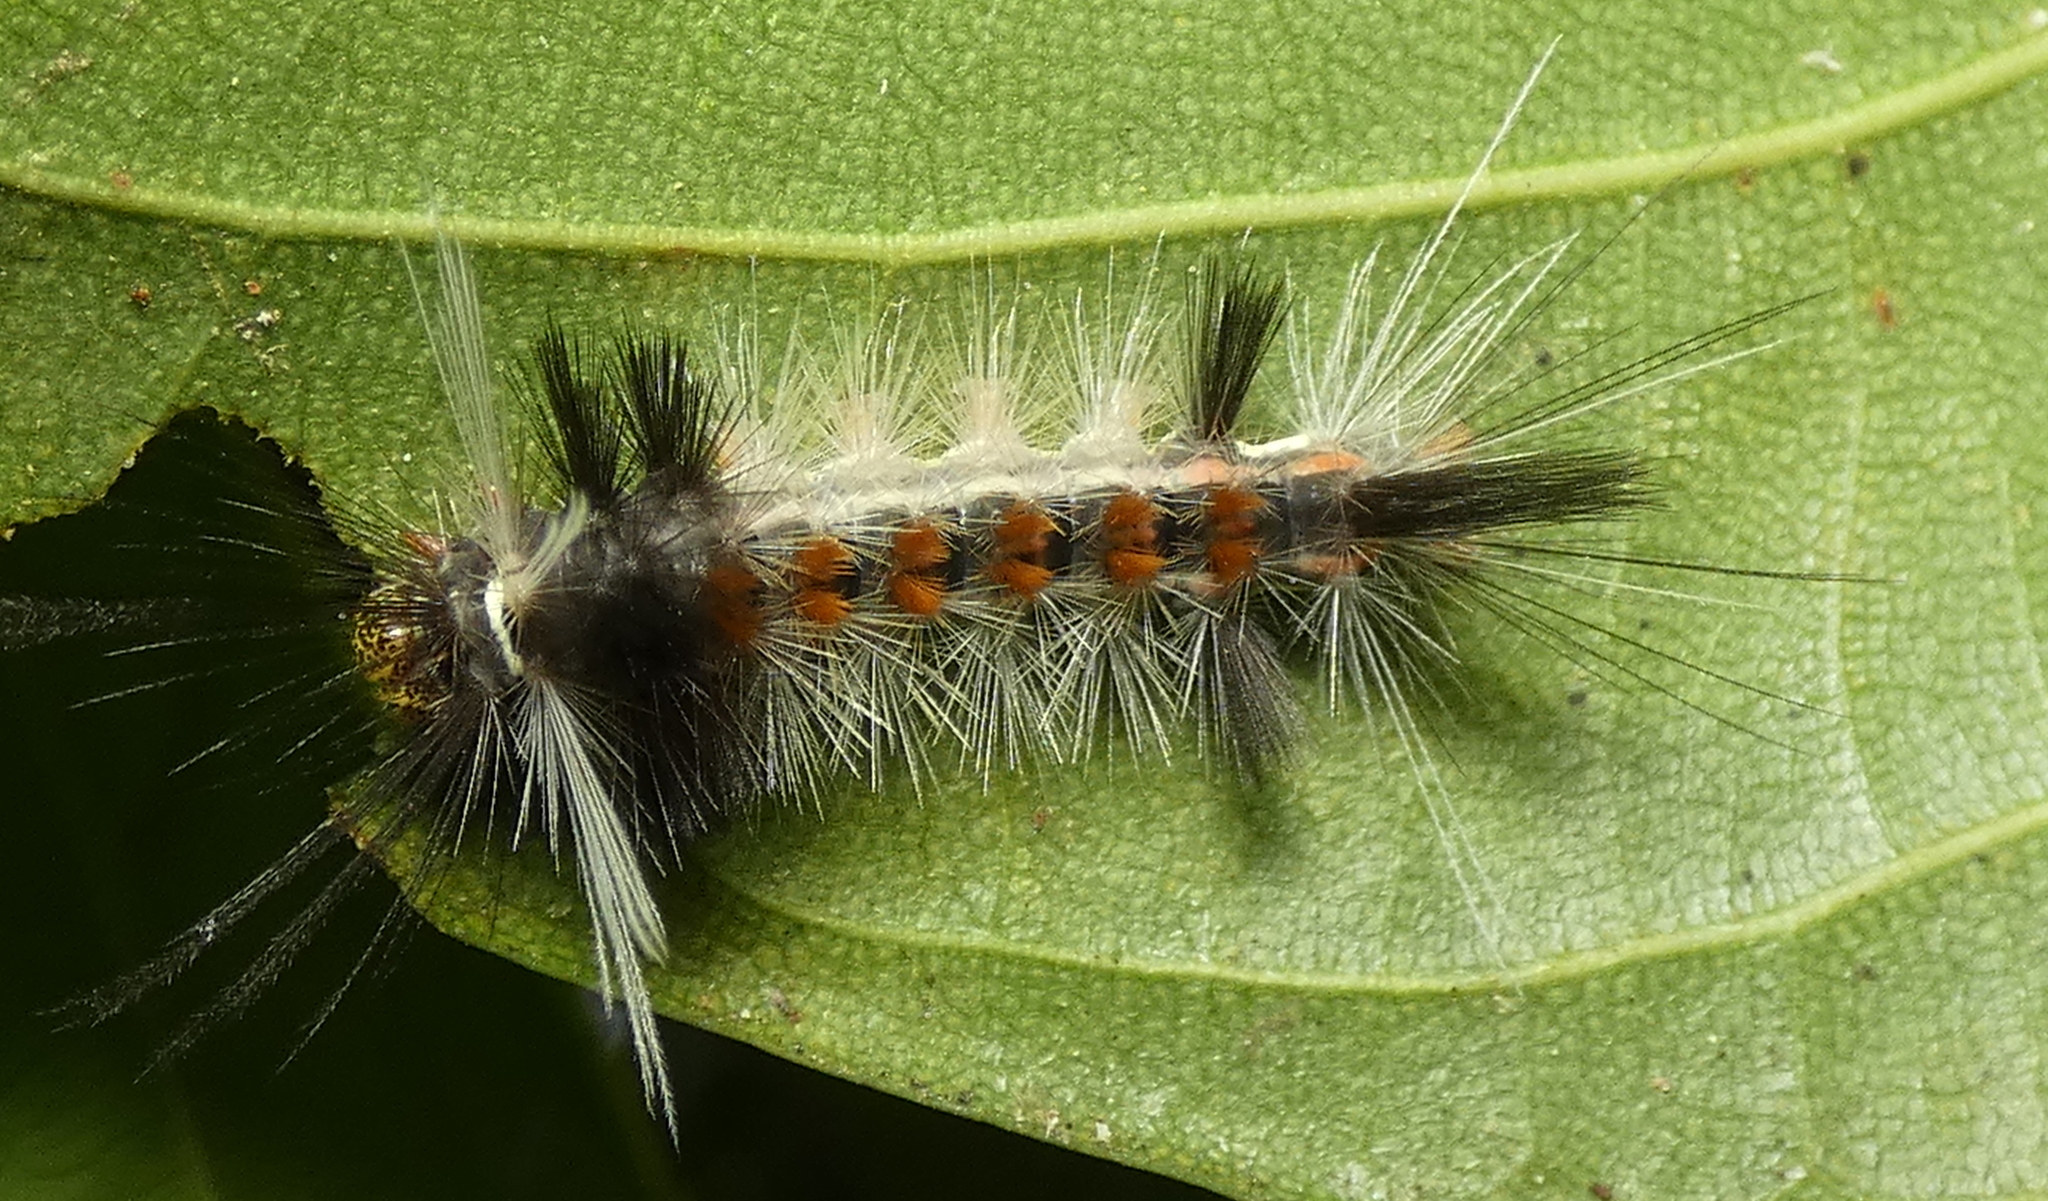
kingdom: Animalia
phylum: Arthropoda
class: Insecta
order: Lepidoptera
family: Erebidae
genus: Carales
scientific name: Carales astur
